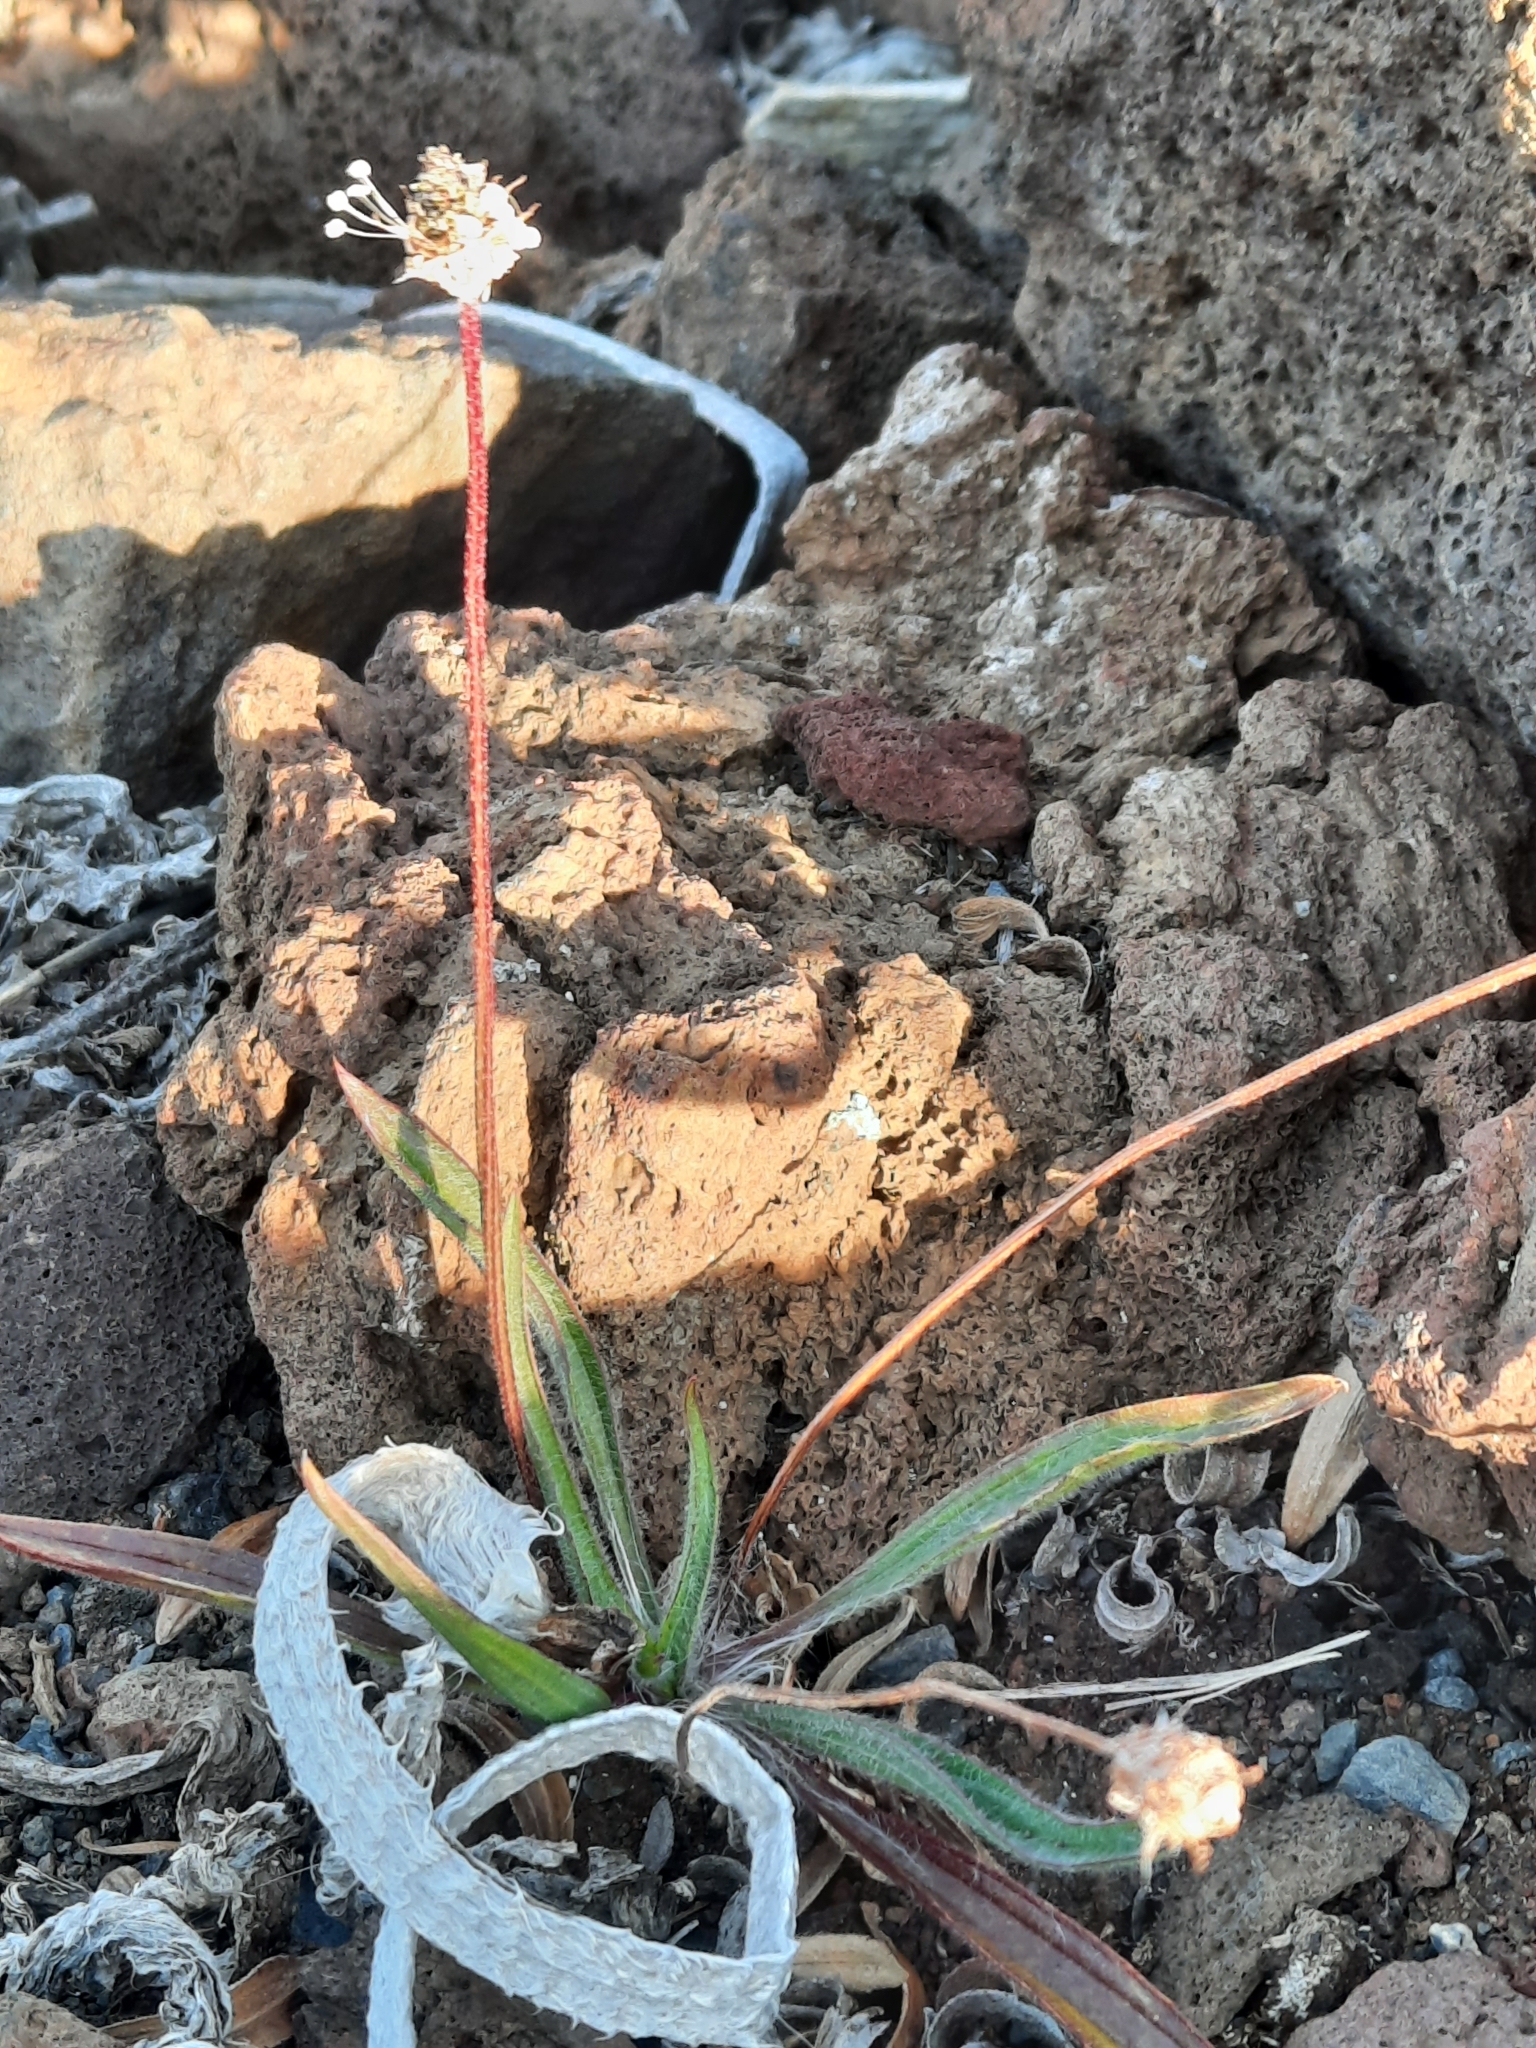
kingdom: Plantae
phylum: Tracheophyta
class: Magnoliopsida
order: Lamiales
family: Plantaginaceae
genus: Plantago
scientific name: Plantago lanceolata
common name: Ribwort plantain
